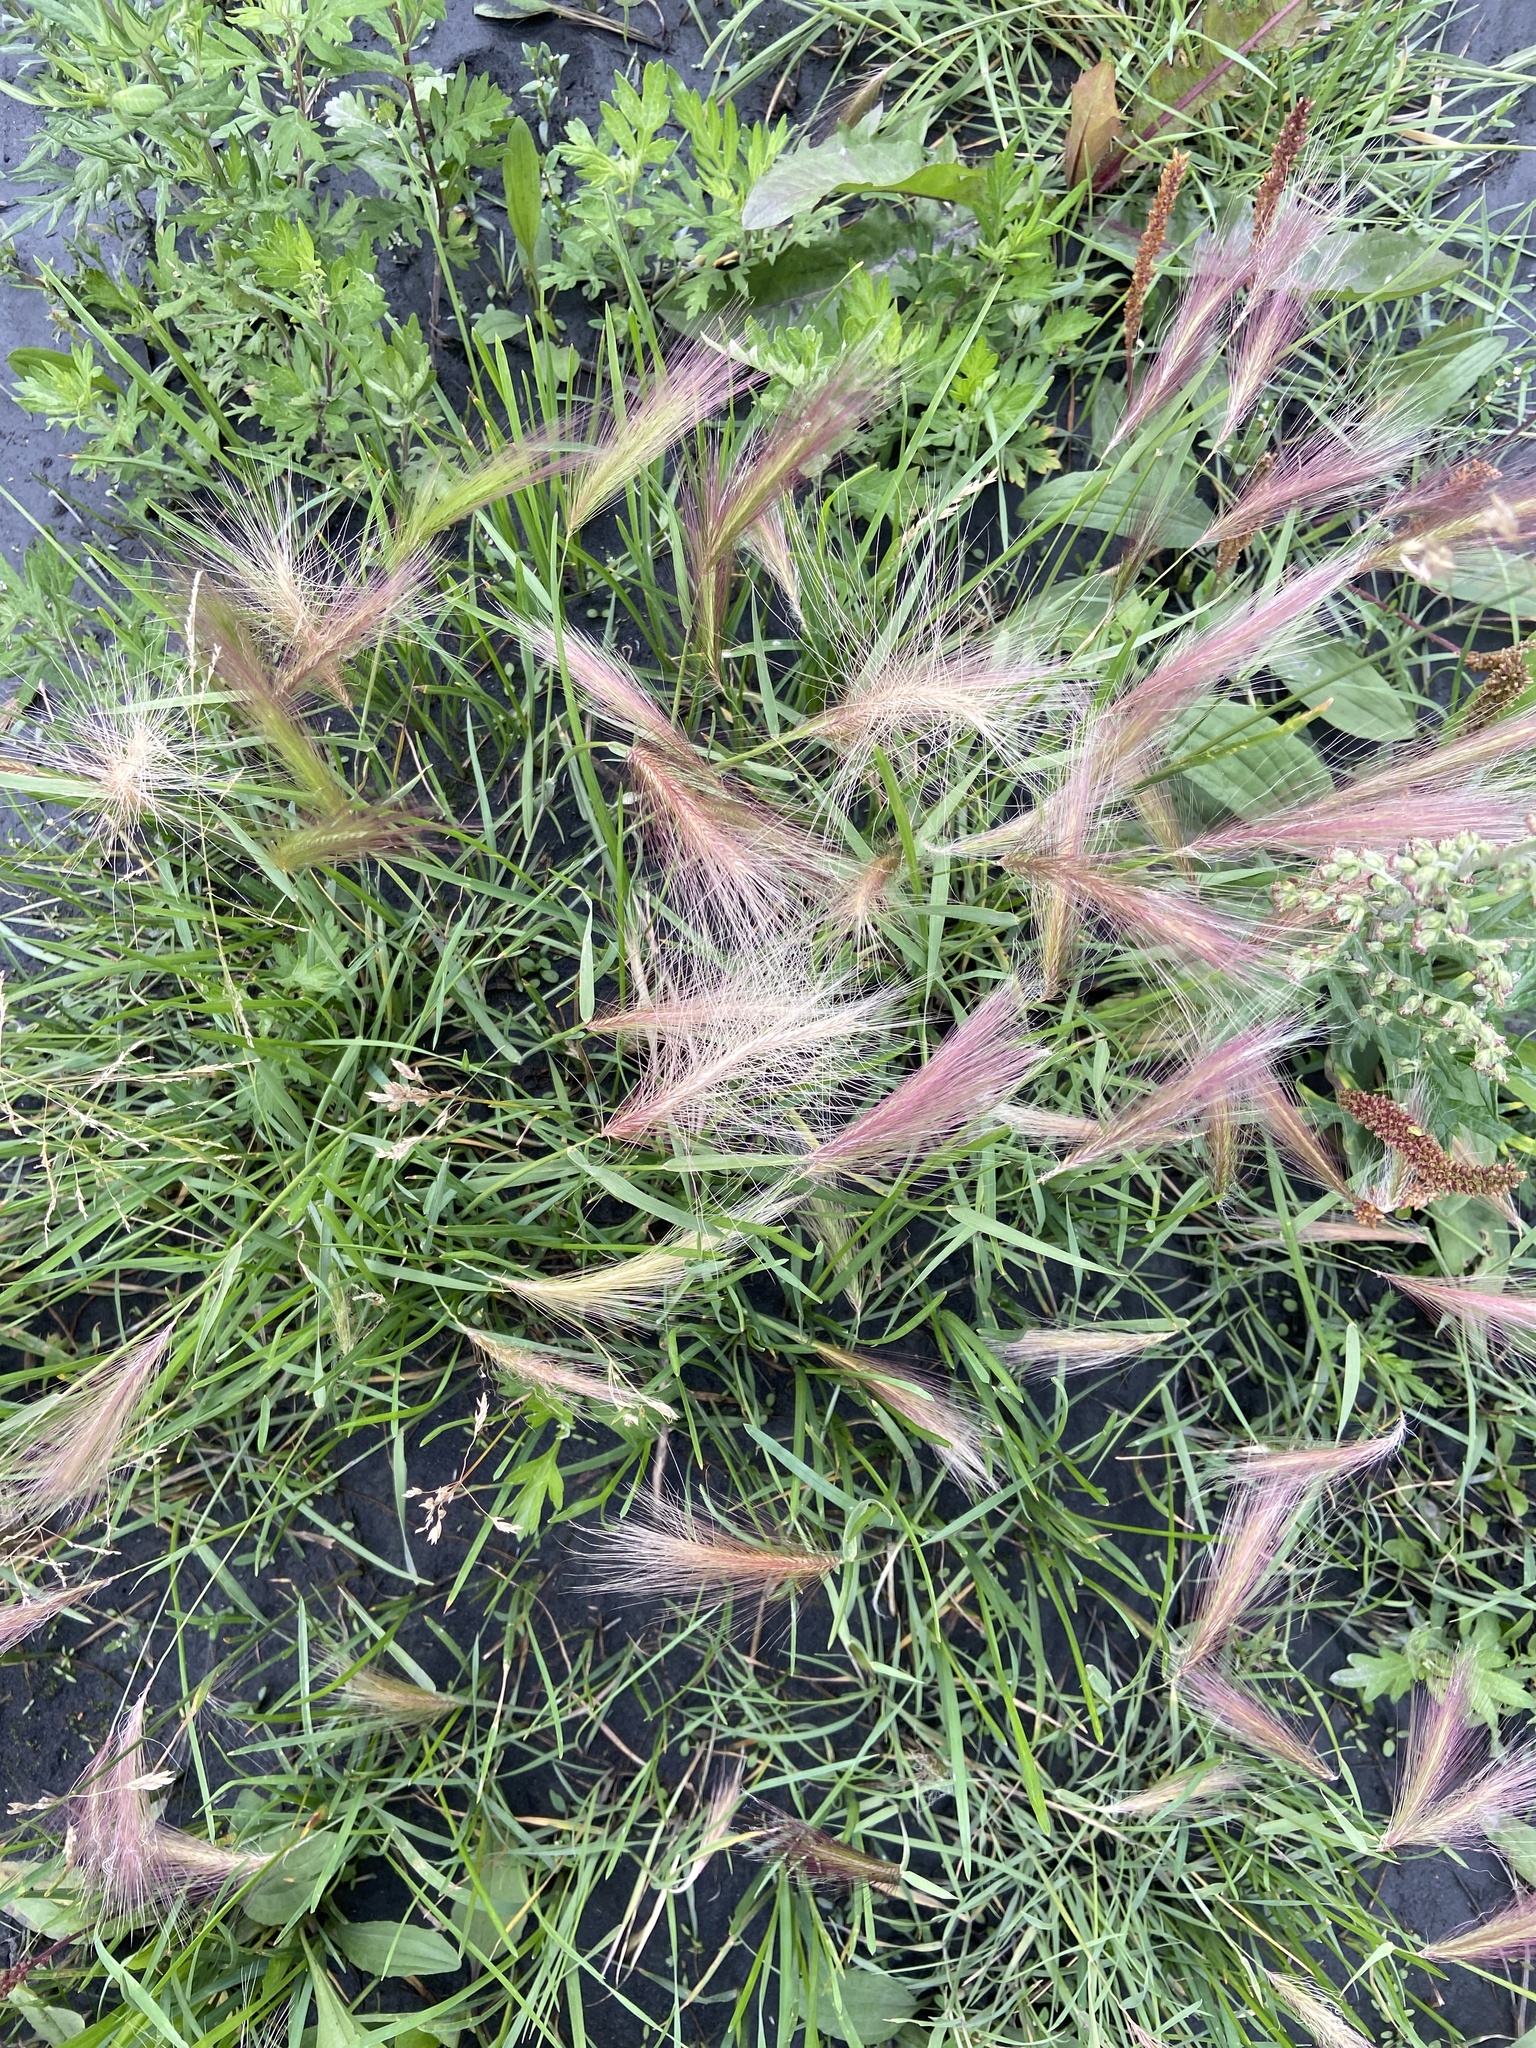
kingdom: Plantae
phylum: Tracheophyta
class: Liliopsida
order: Poales
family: Poaceae
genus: Hordeum
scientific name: Hordeum jubatum
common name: Foxtail barley
